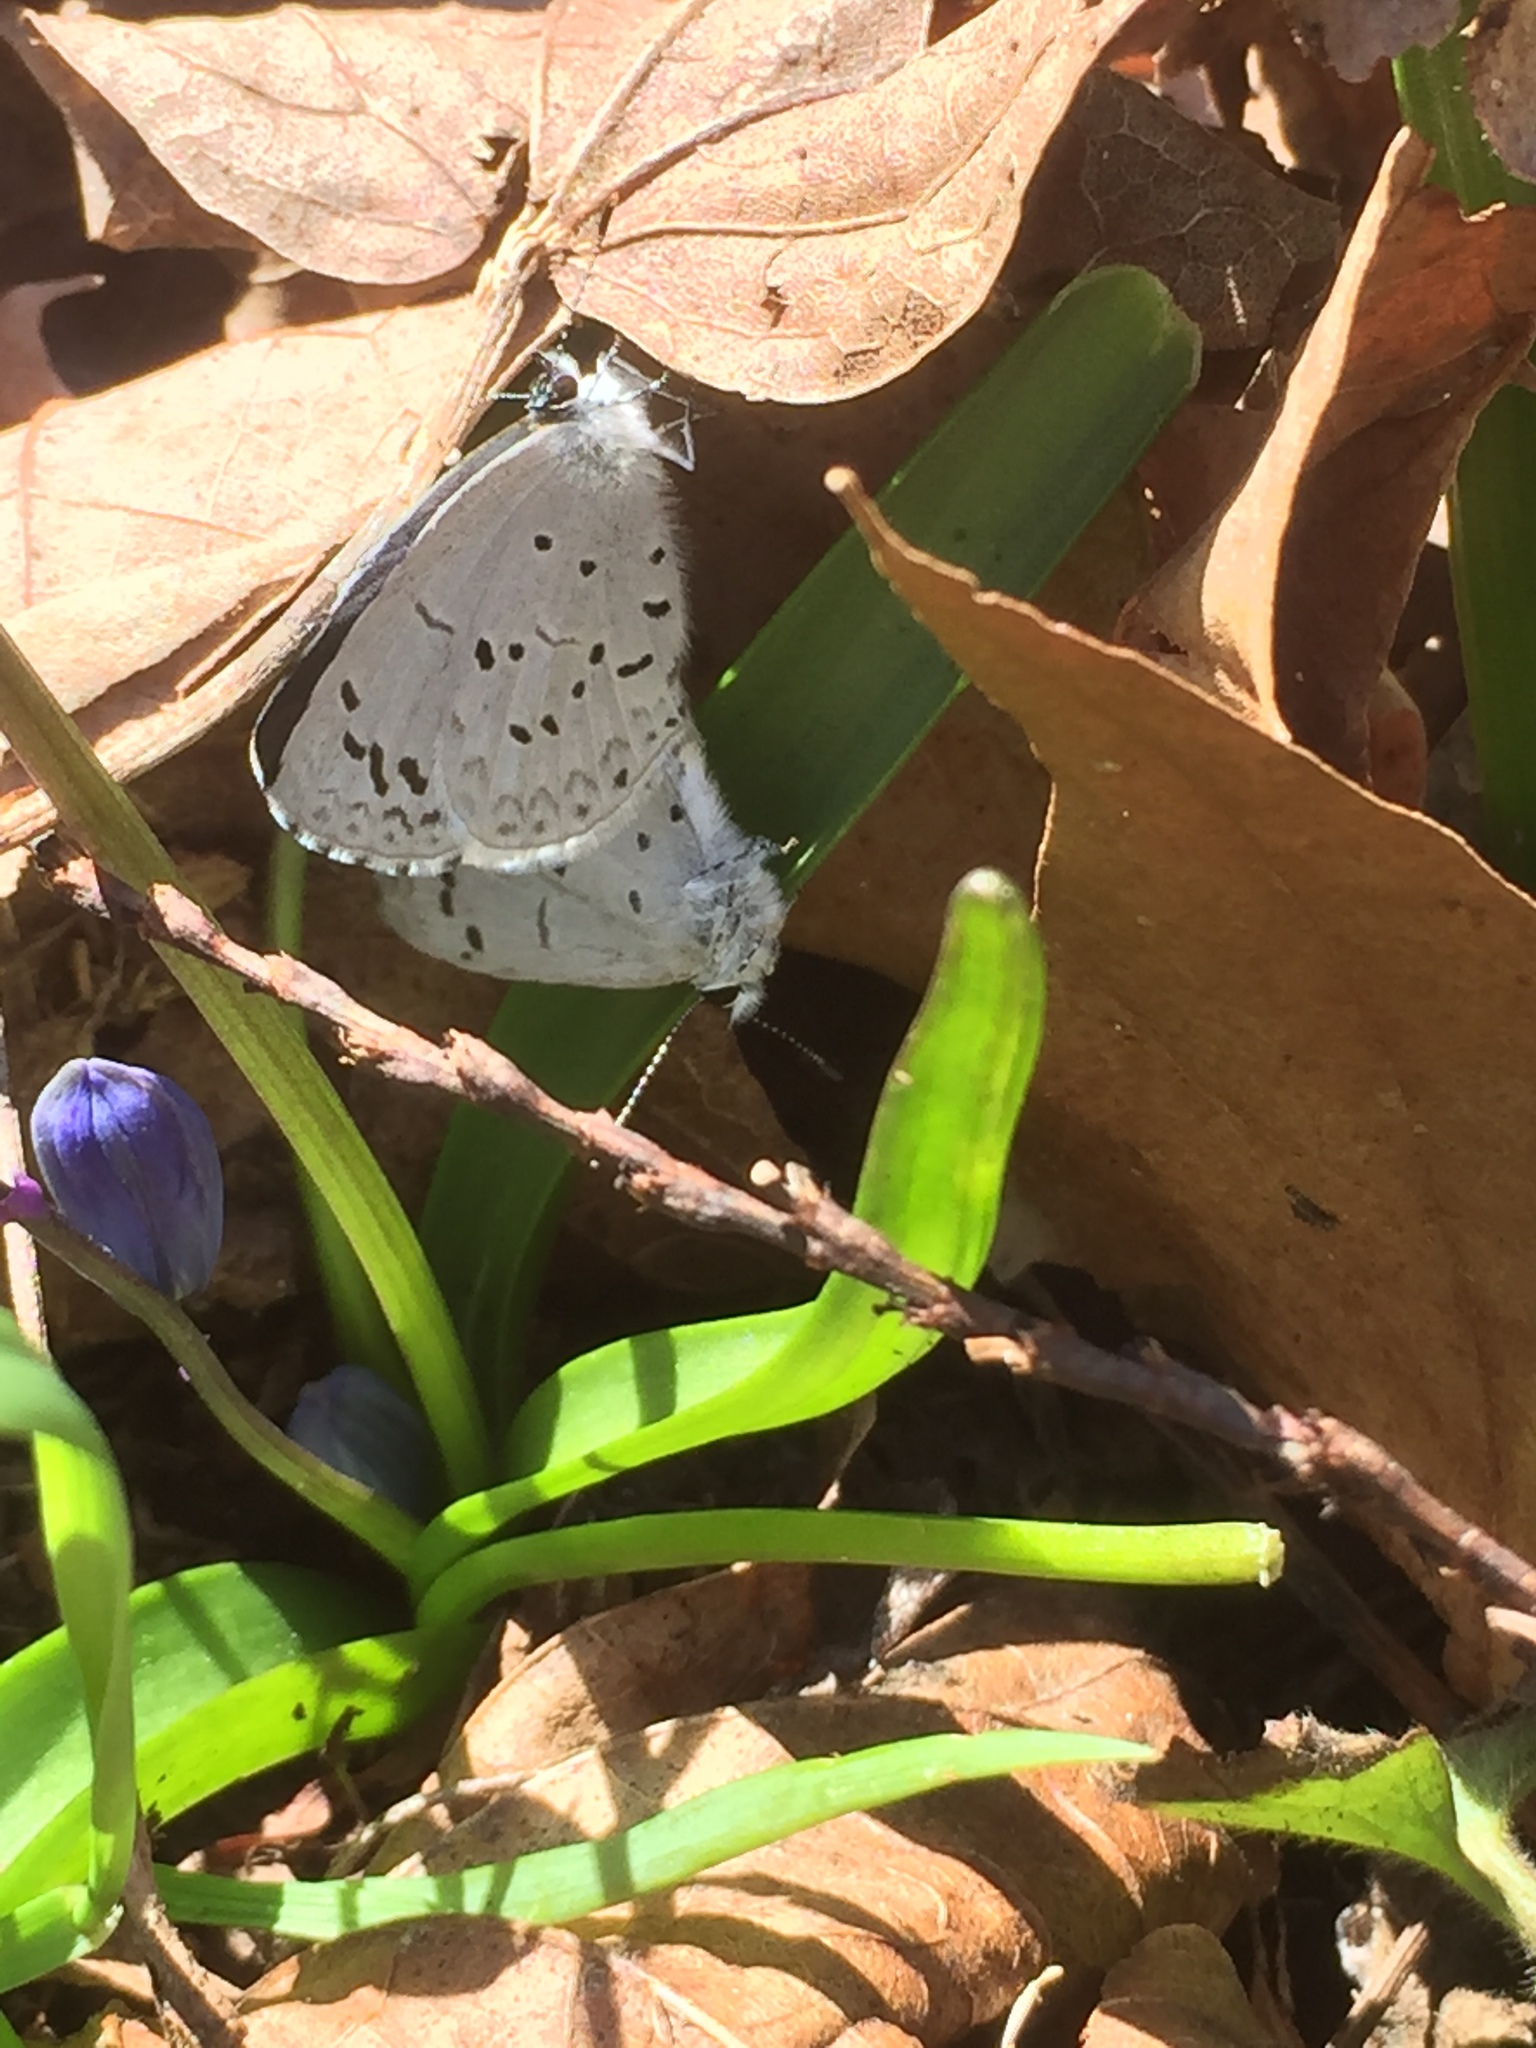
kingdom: Animalia
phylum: Arthropoda
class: Insecta
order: Lepidoptera
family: Lycaenidae
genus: Celastrina
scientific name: Celastrina ladon
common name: Spring azure
